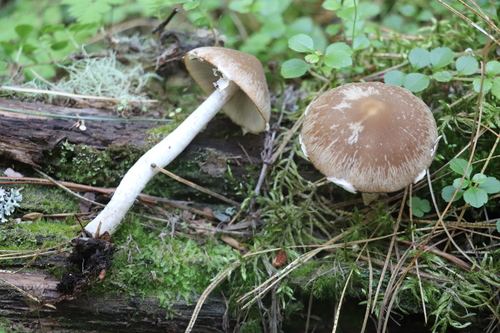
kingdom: Fungi
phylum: Basidiomycota
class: Agaricomycetes
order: Agaricales
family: Psathyrellaceae
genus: Psathyrella
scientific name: Psathyrella
